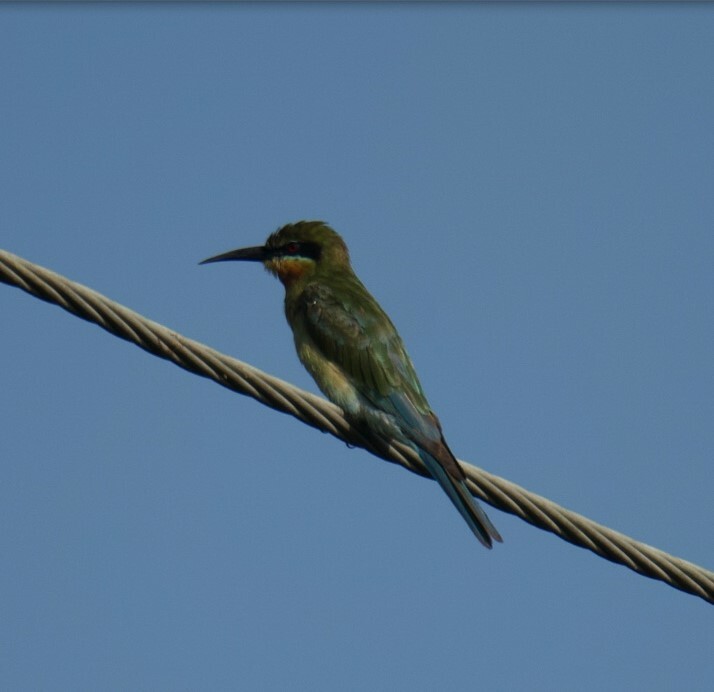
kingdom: Animalia
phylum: Chordata
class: Aves
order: Coraciiformes
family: Meropidae
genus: Merops
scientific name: Merops philippinus
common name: Blue-tailed bee-eater
